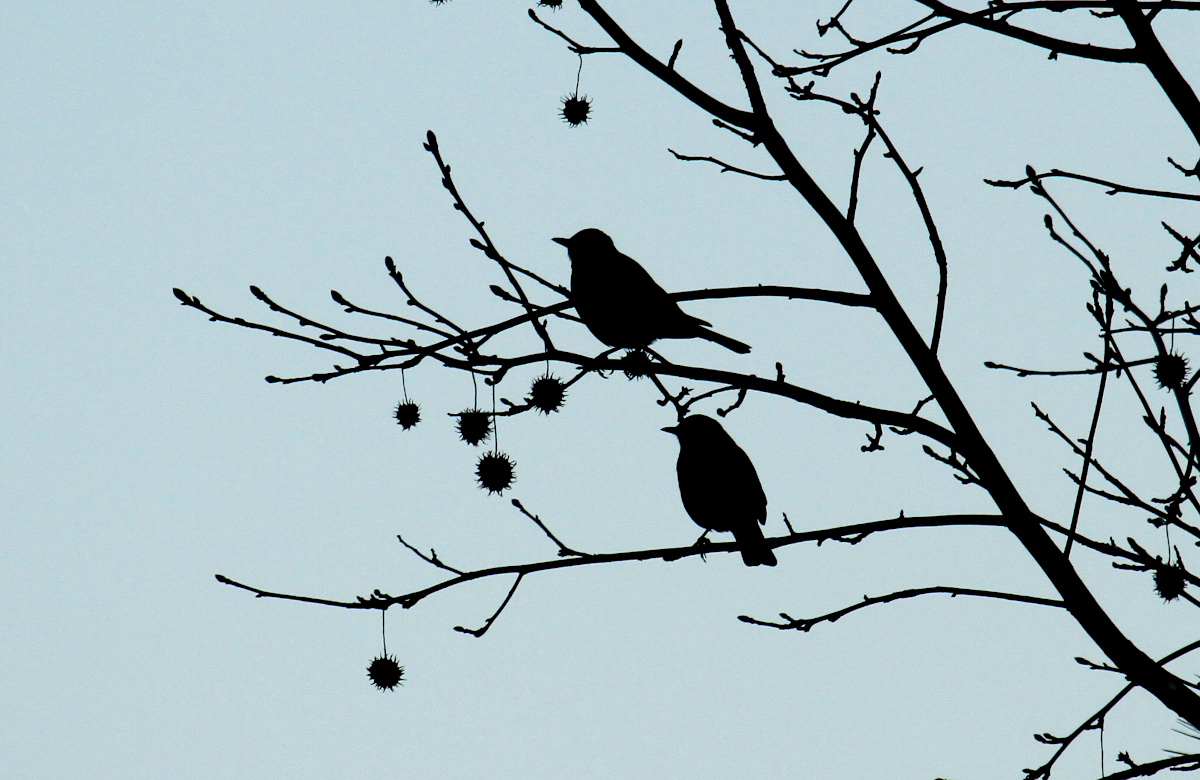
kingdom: Animalia
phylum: Chordata
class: Aves
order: Passeriformes
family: Turdidae
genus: Turdus
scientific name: Turdus migratorius
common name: American robin
